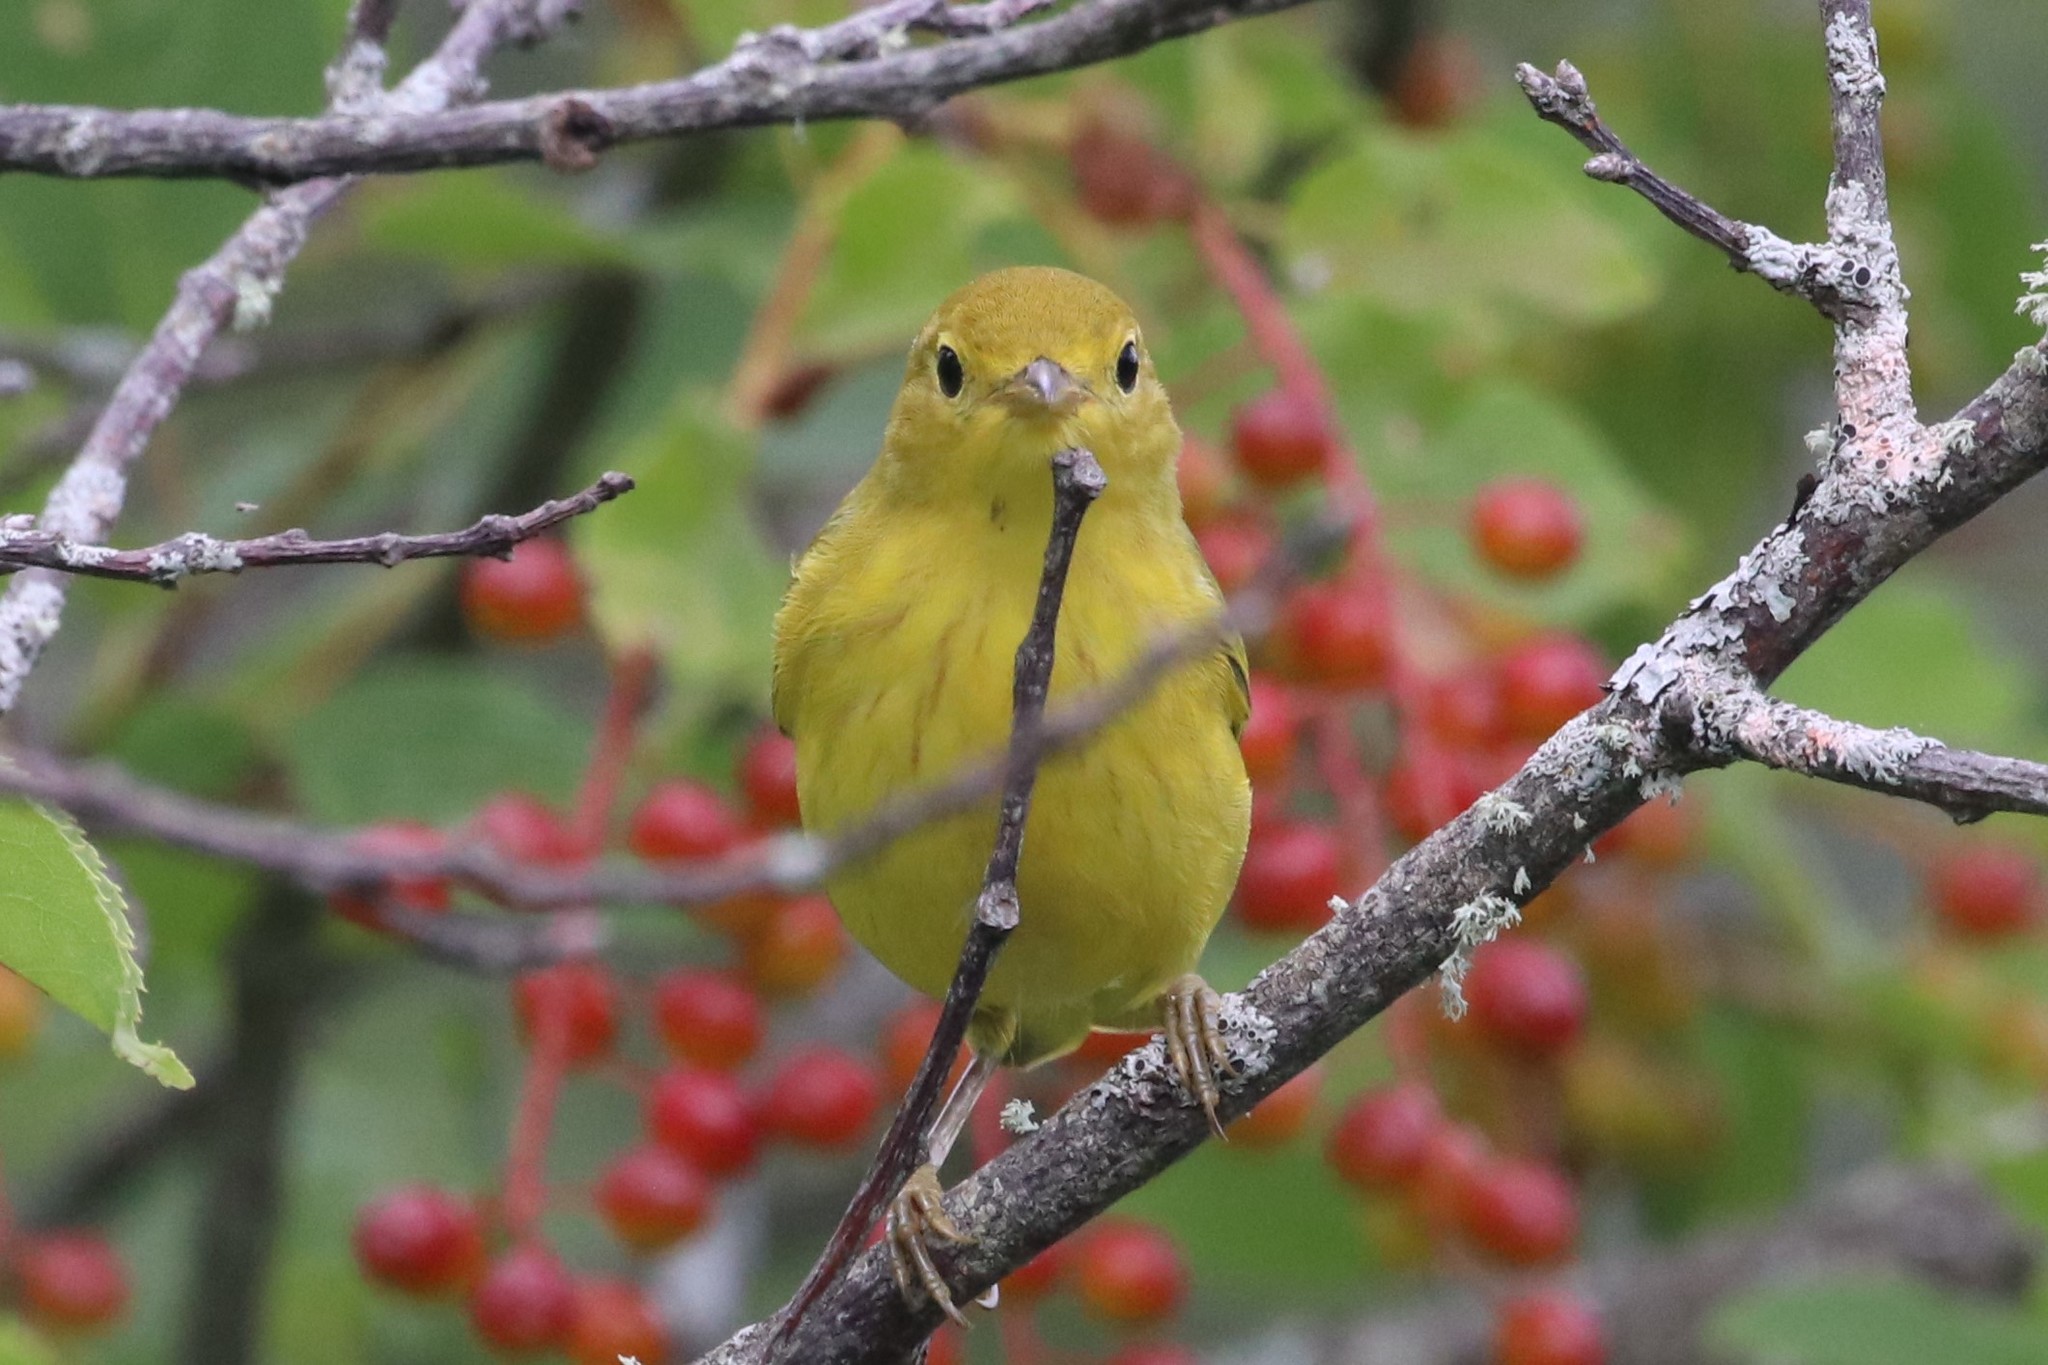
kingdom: Animalia
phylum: Chordata
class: Aves
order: Passeriformes
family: Parulidae
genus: Setophaga
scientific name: Setophaga petechia
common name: Yellow warbler
